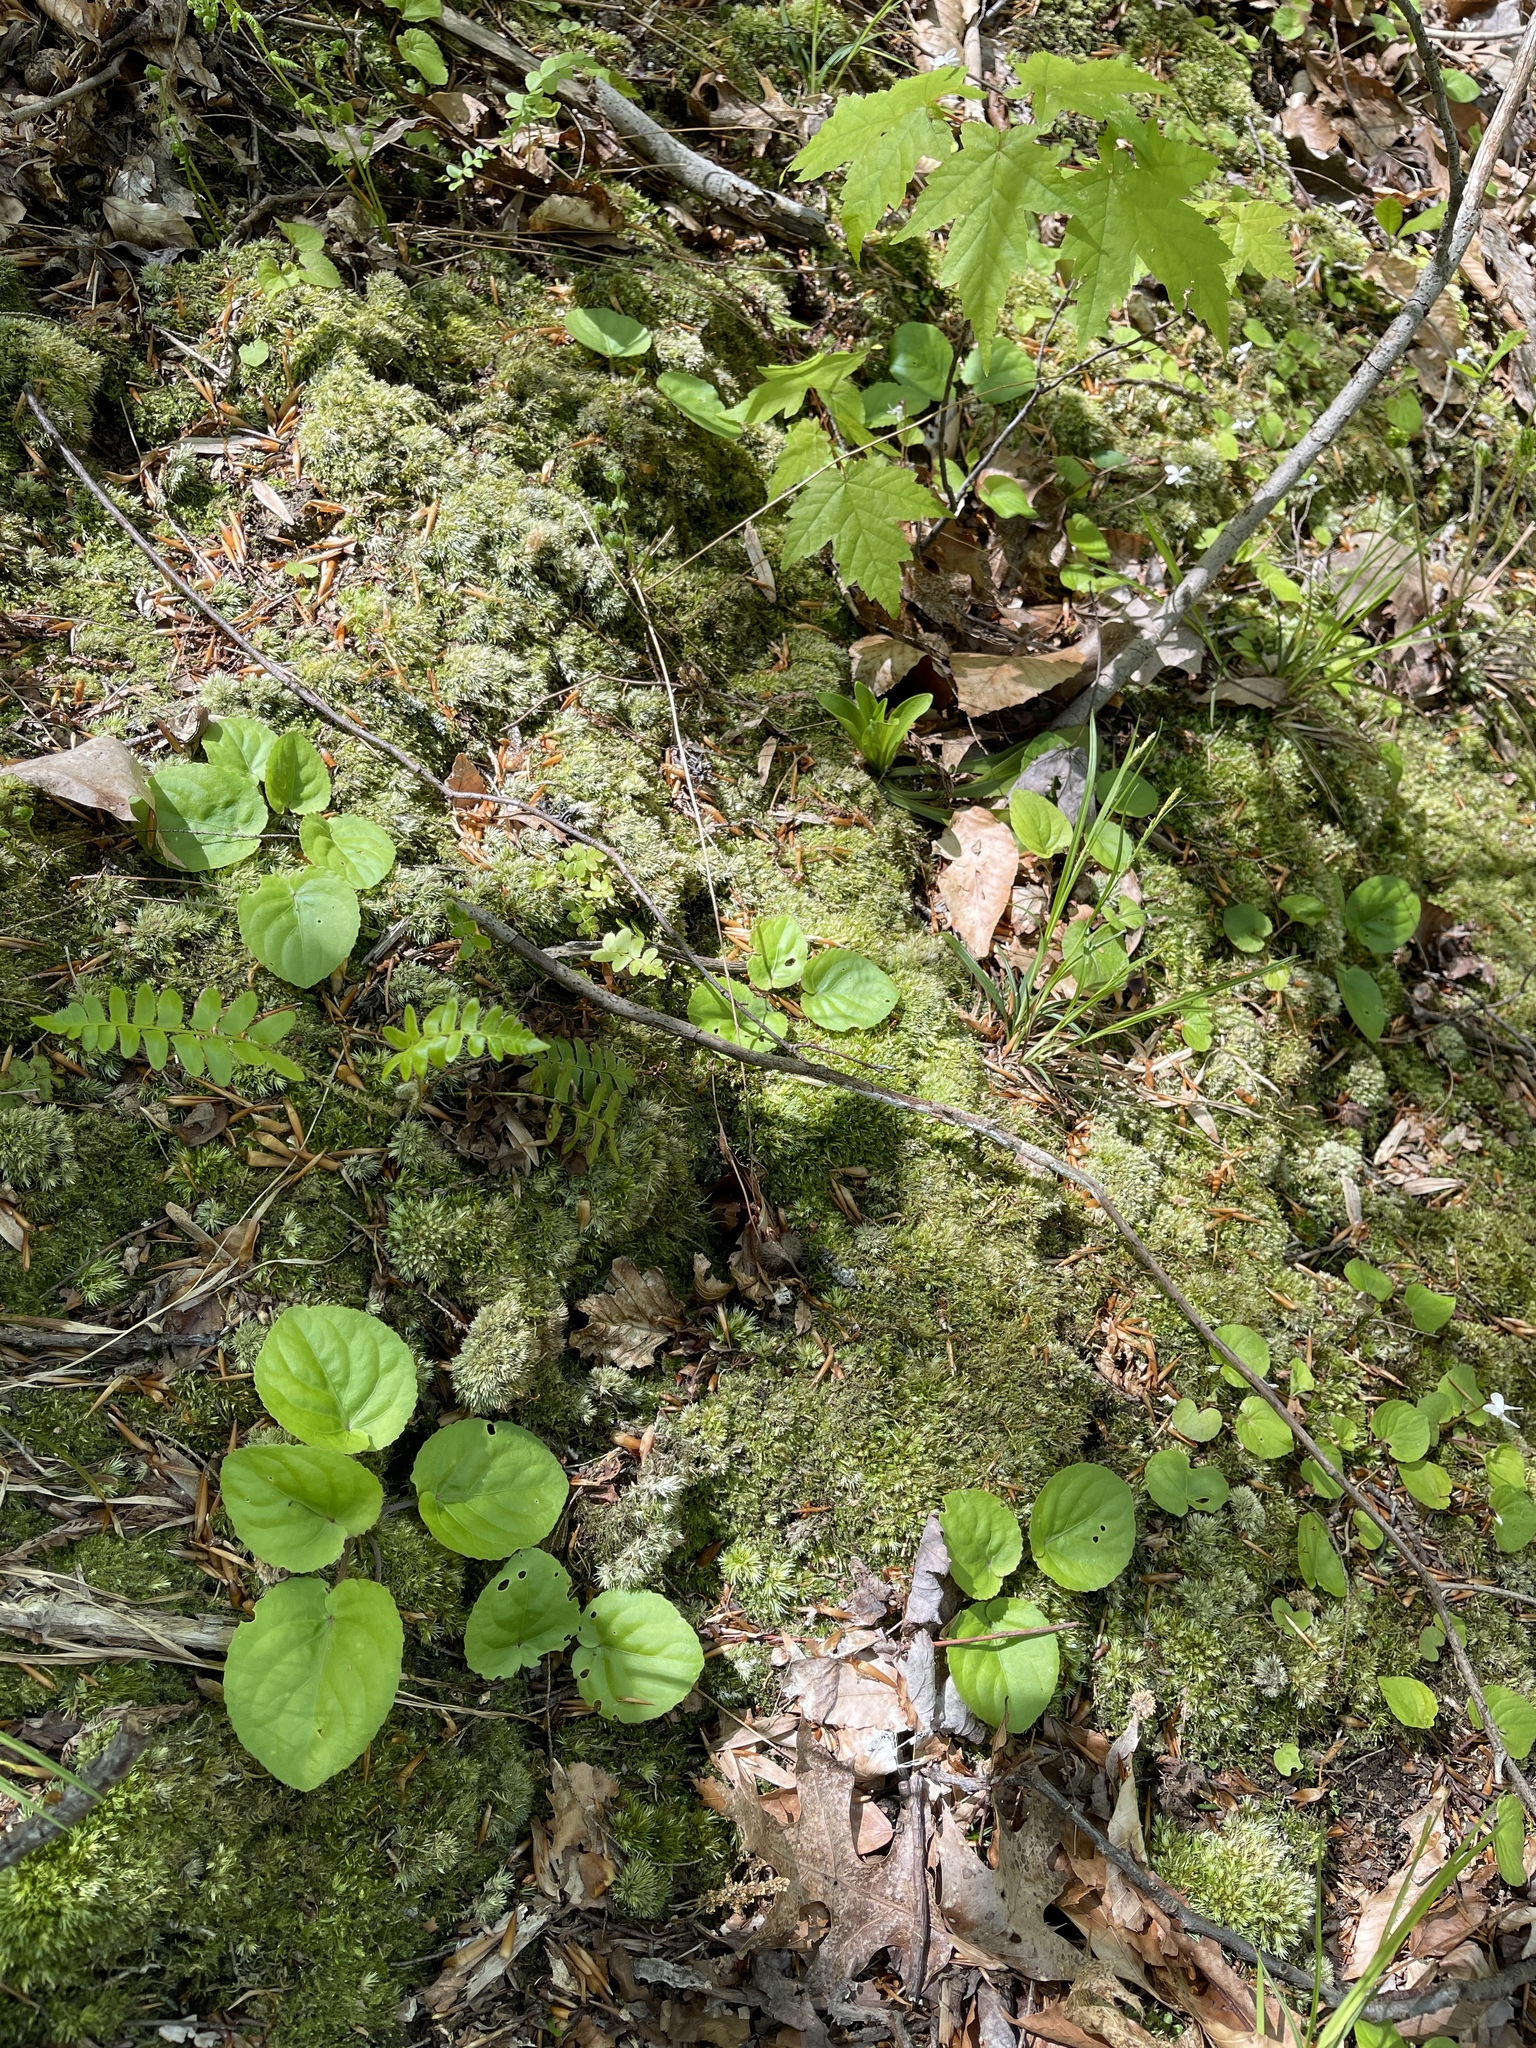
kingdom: Plantae
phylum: Tracheophyta
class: Magnoliopsida
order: Malpighiales
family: Violaceae
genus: Viola
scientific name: Viola rotundifolia
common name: Early yellow violet
